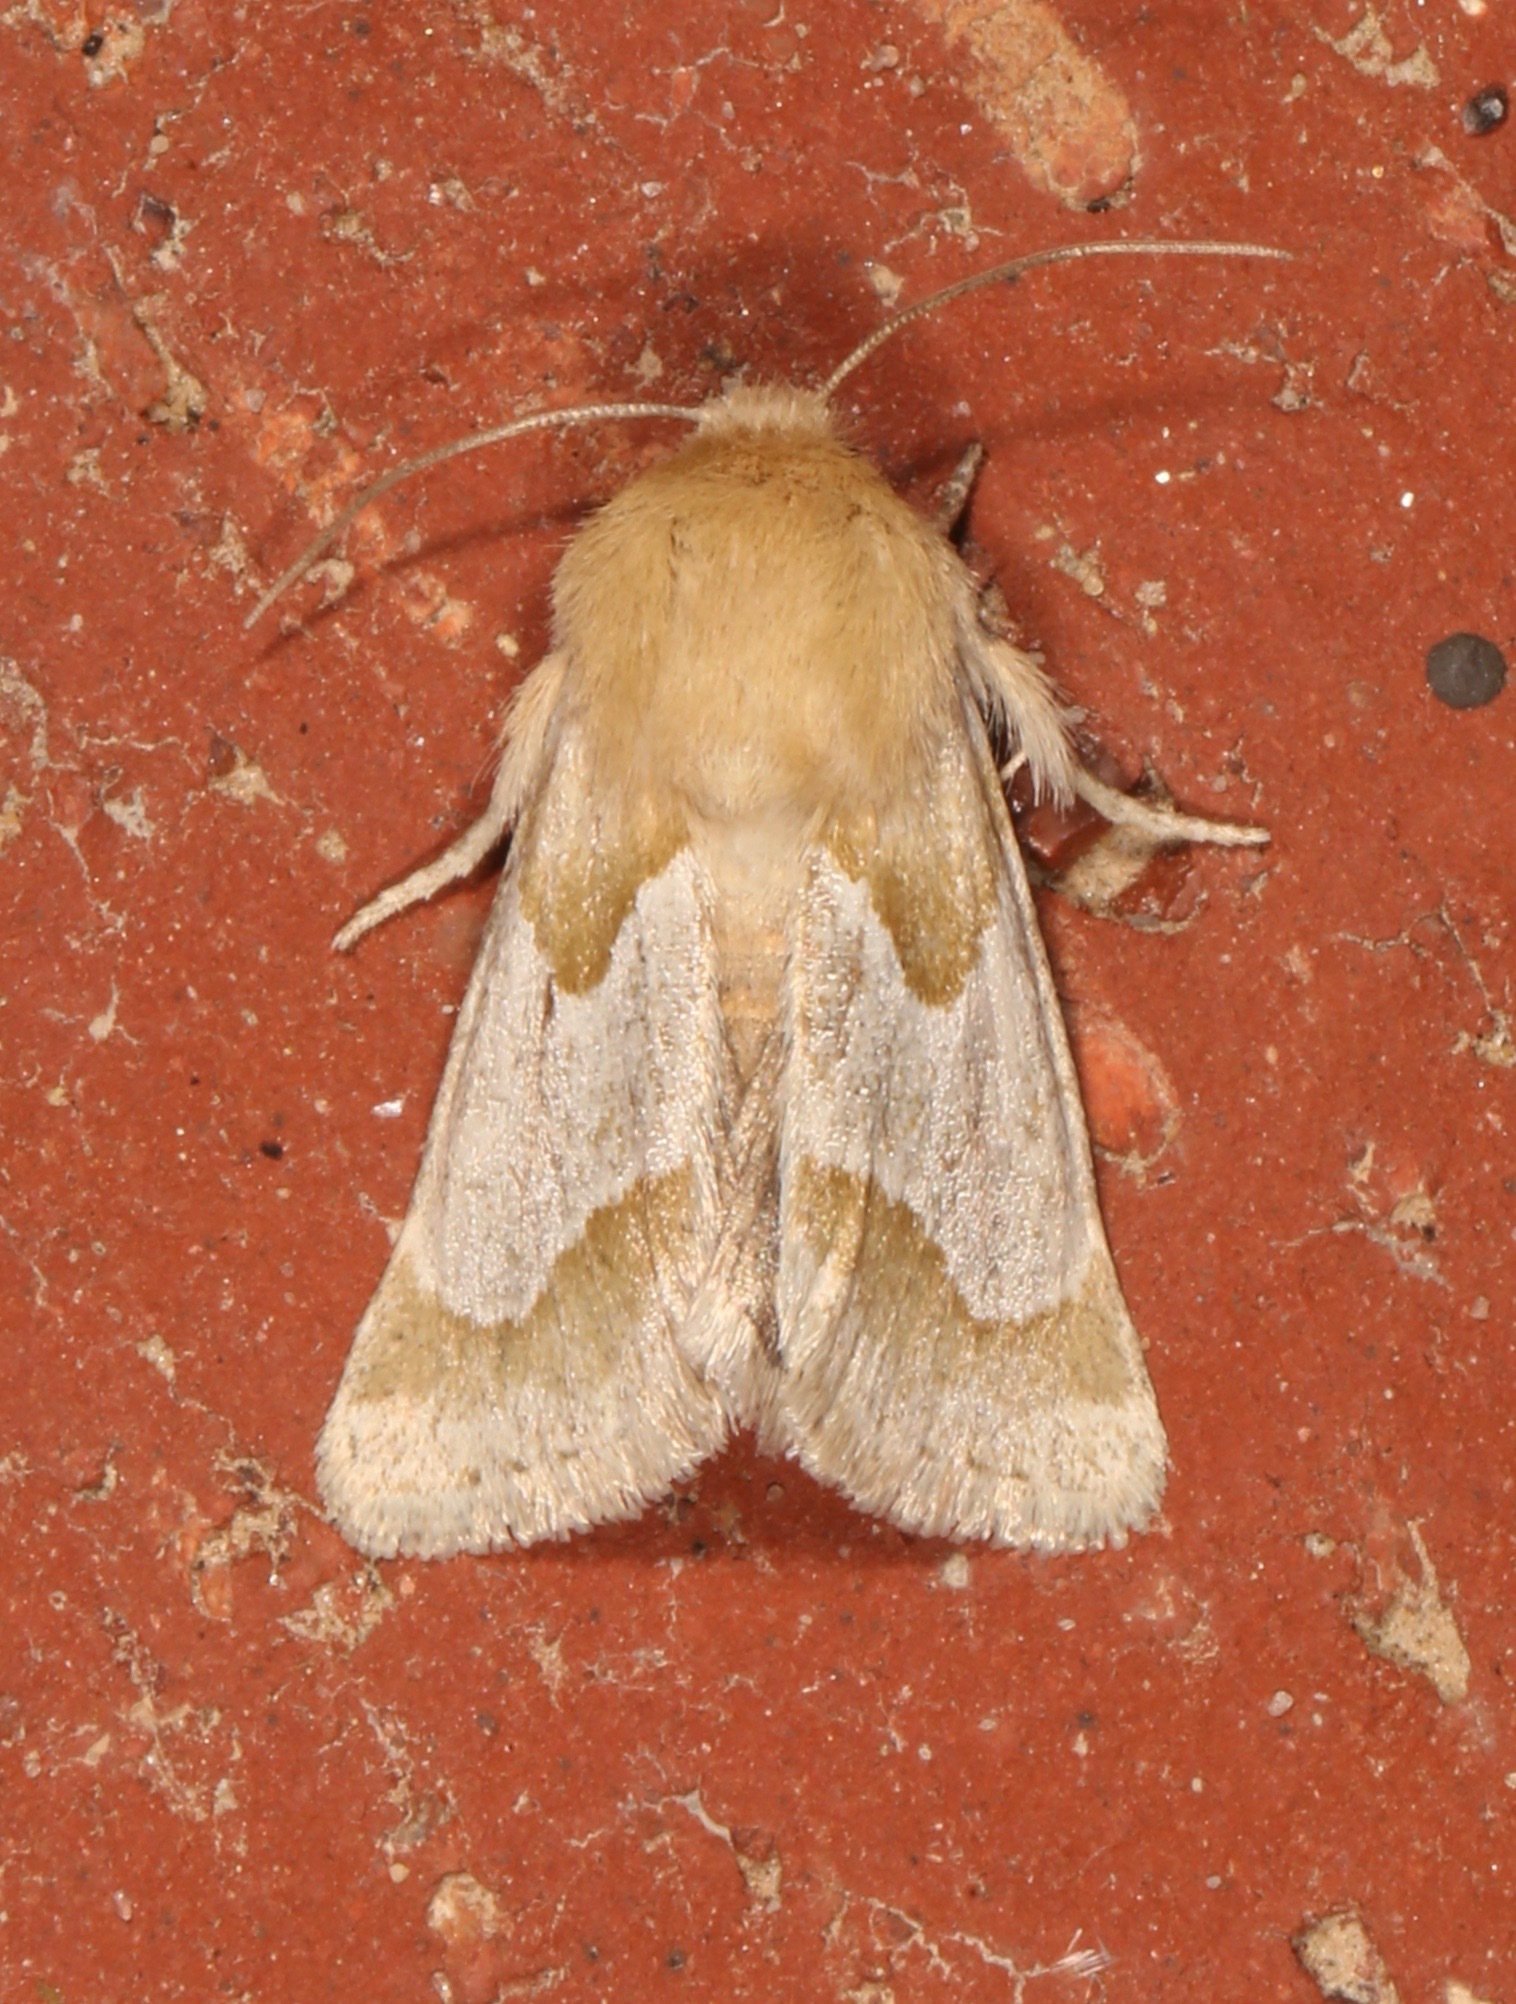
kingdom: Animalia
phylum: Arthropoda
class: Insecta
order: Lepidoptera
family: Noctuidae
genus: Schinia
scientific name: Schinia ligeae
